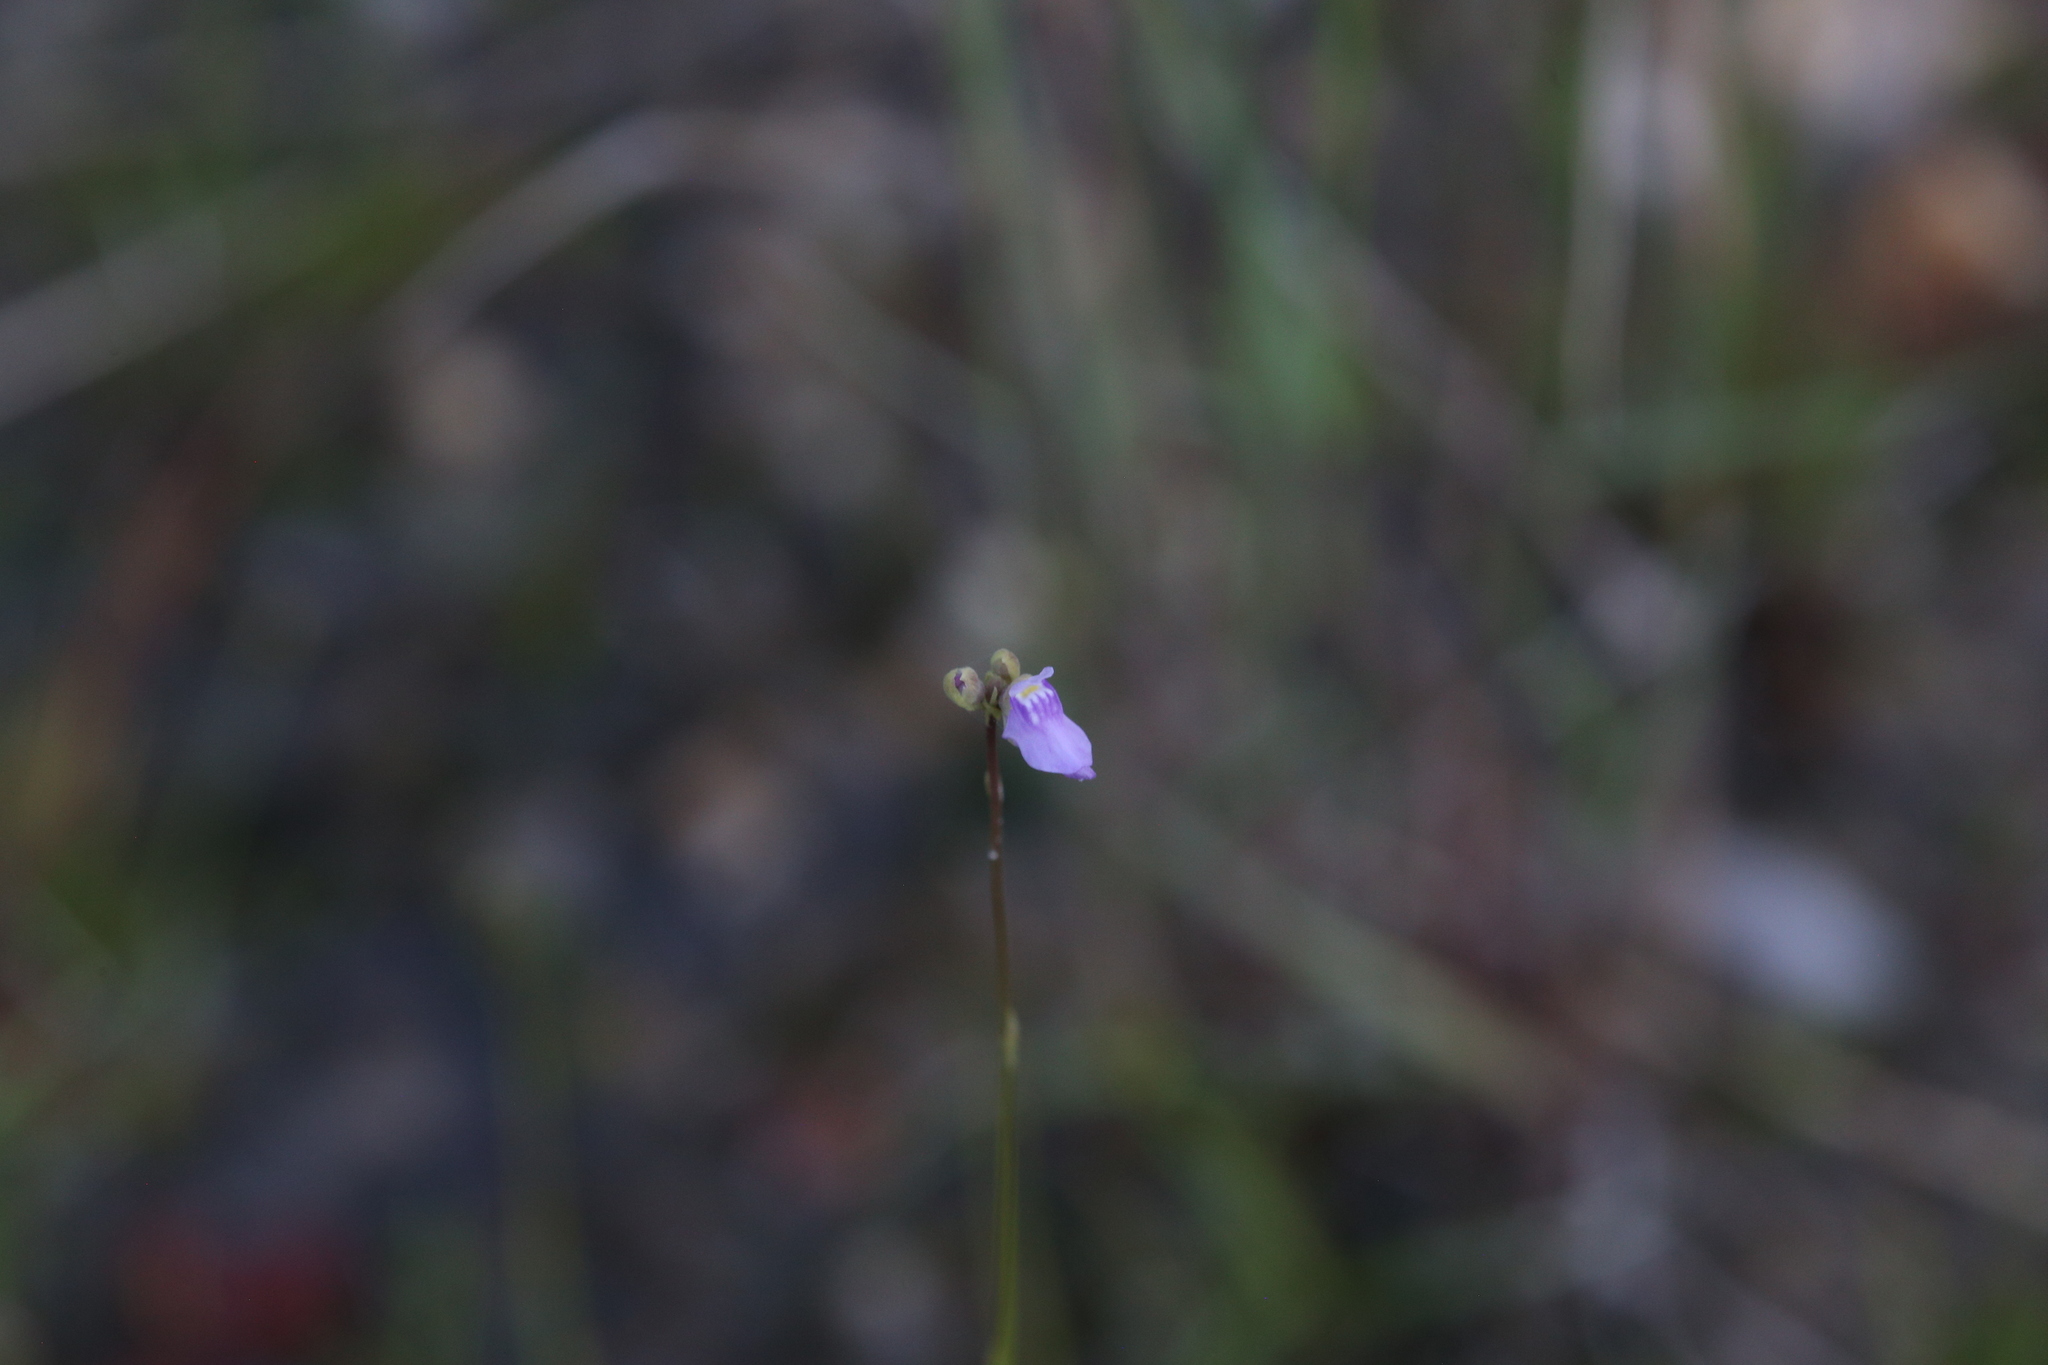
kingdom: Plantae
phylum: Tracheophyta
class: Magnoliopsida
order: Lamiales
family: Lentibulariaceae
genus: Utricularia
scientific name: Utricularia caerulea
